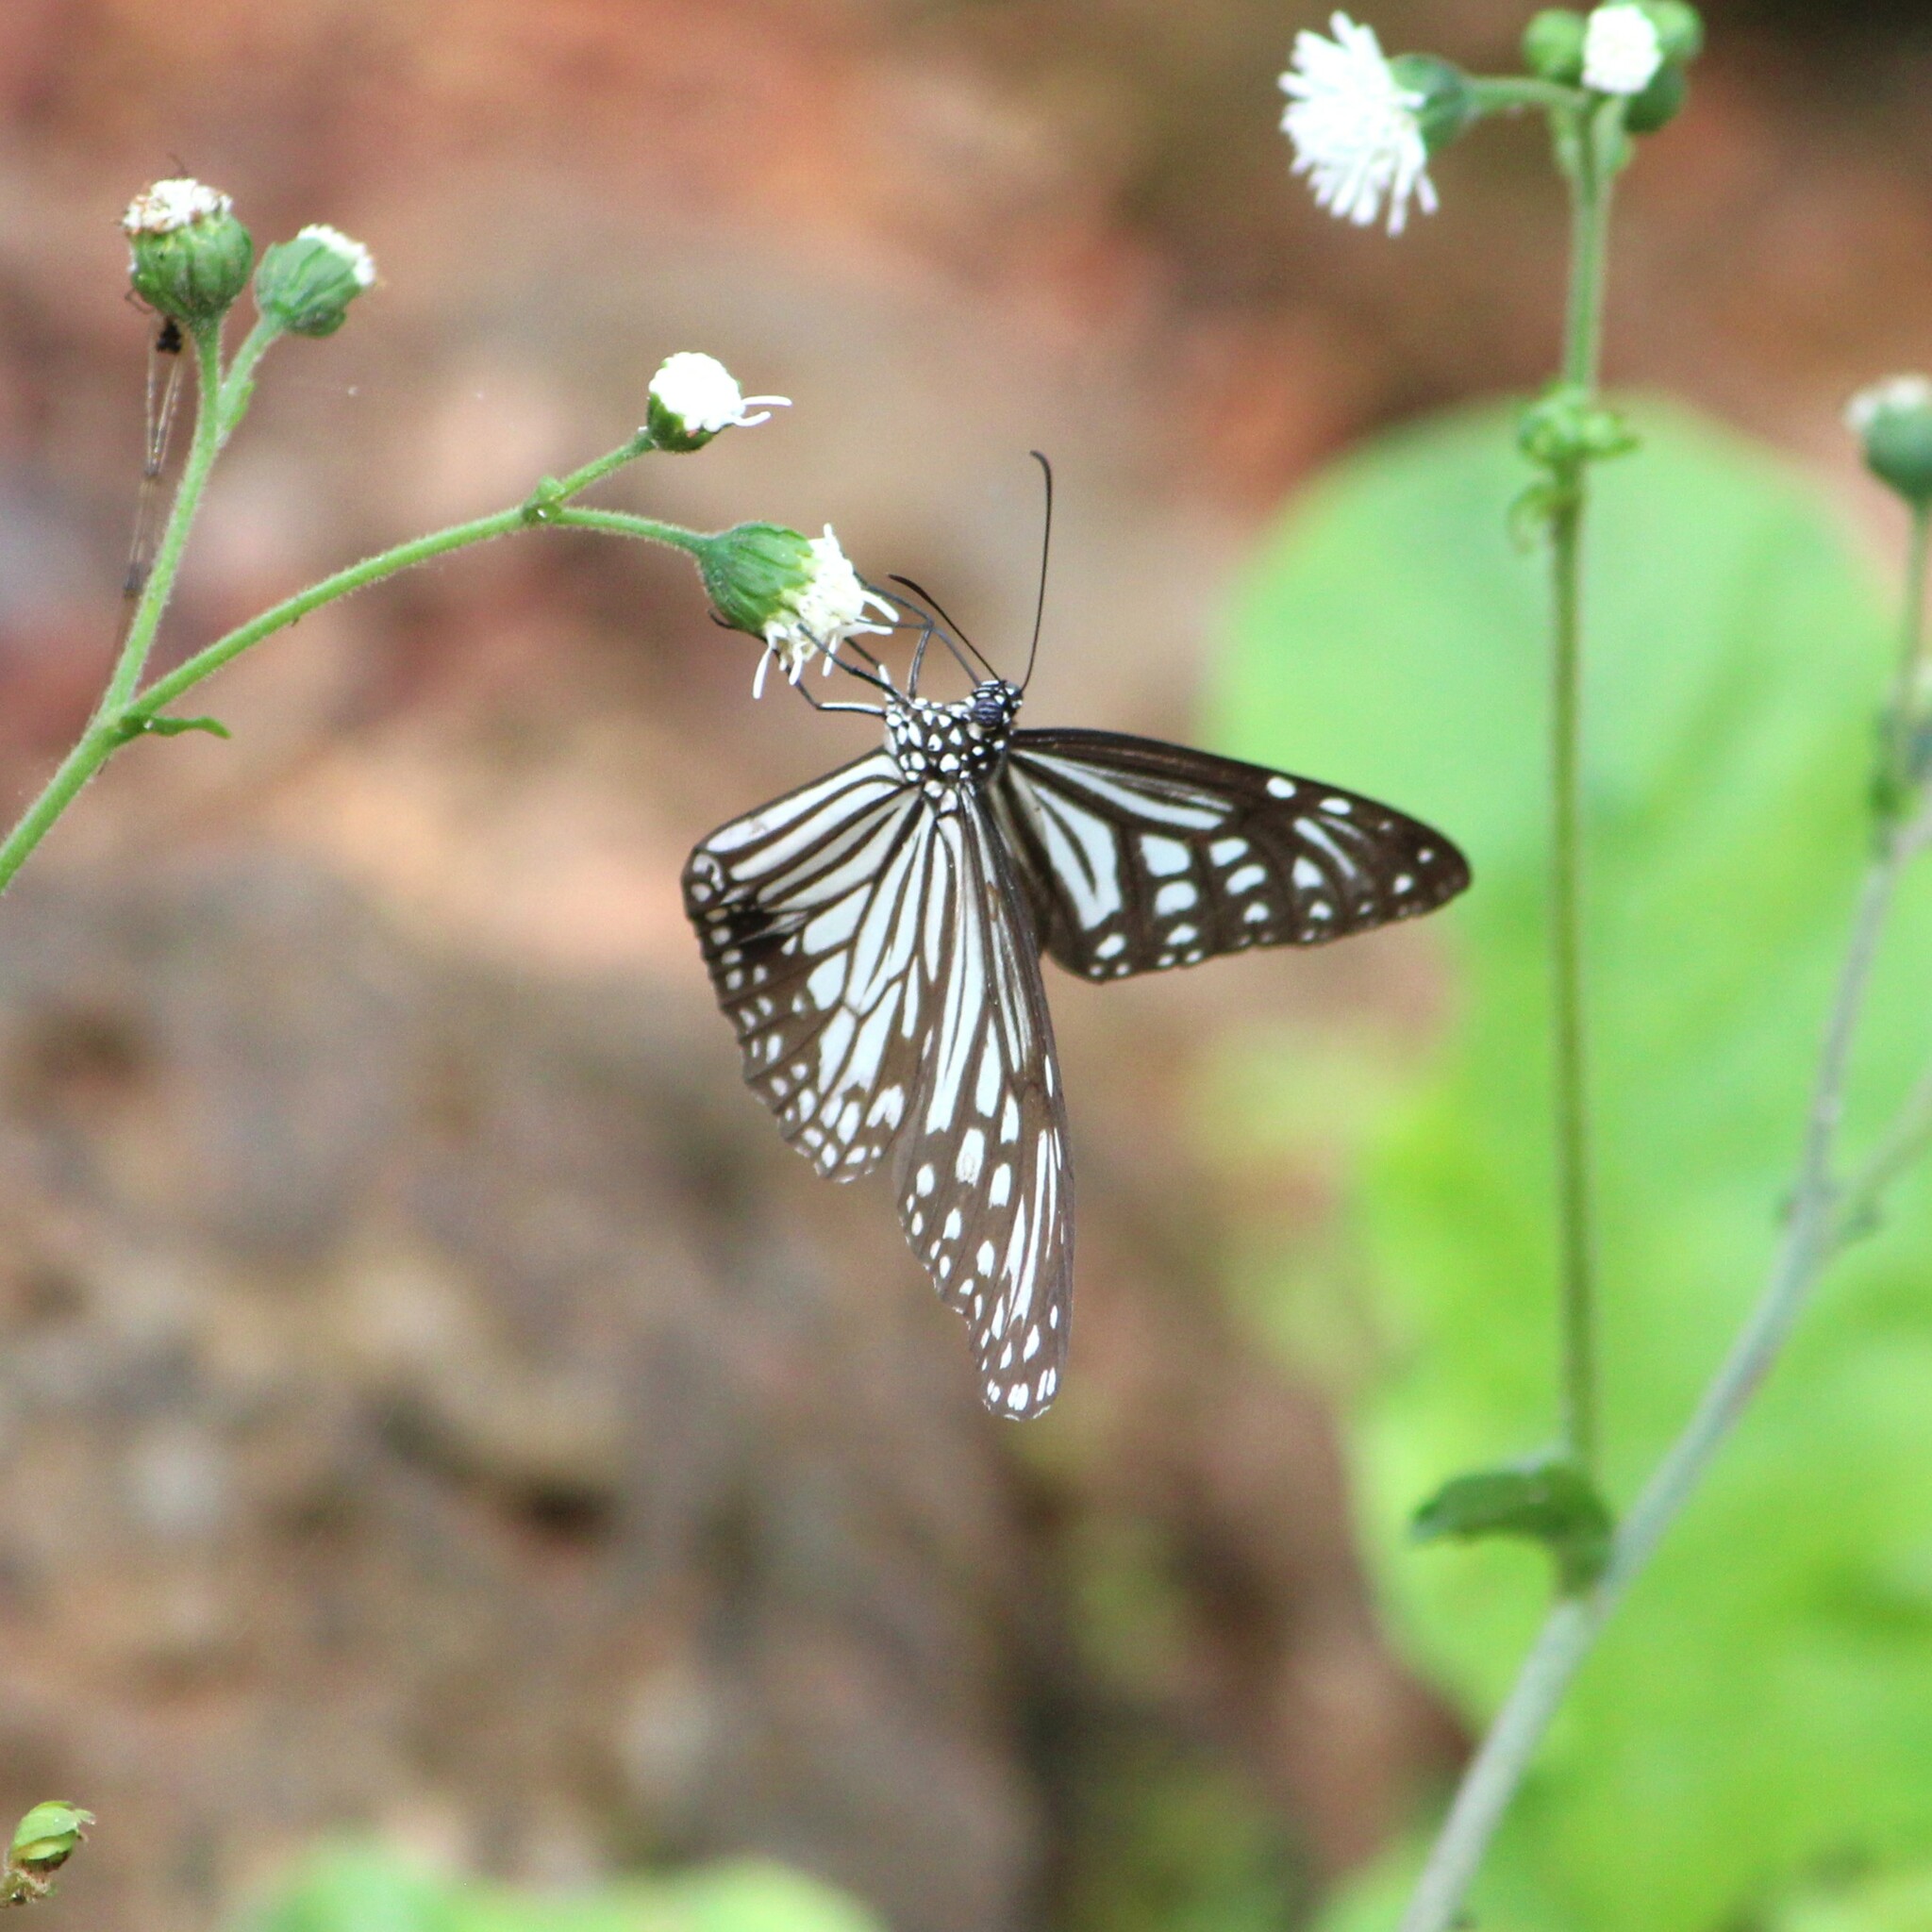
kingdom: Animalia
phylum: Arthropoda
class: Insecta
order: Lepidoptera
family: Nymphalidae
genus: Parantica
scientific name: Parantica aglea
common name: Glassy tiger
